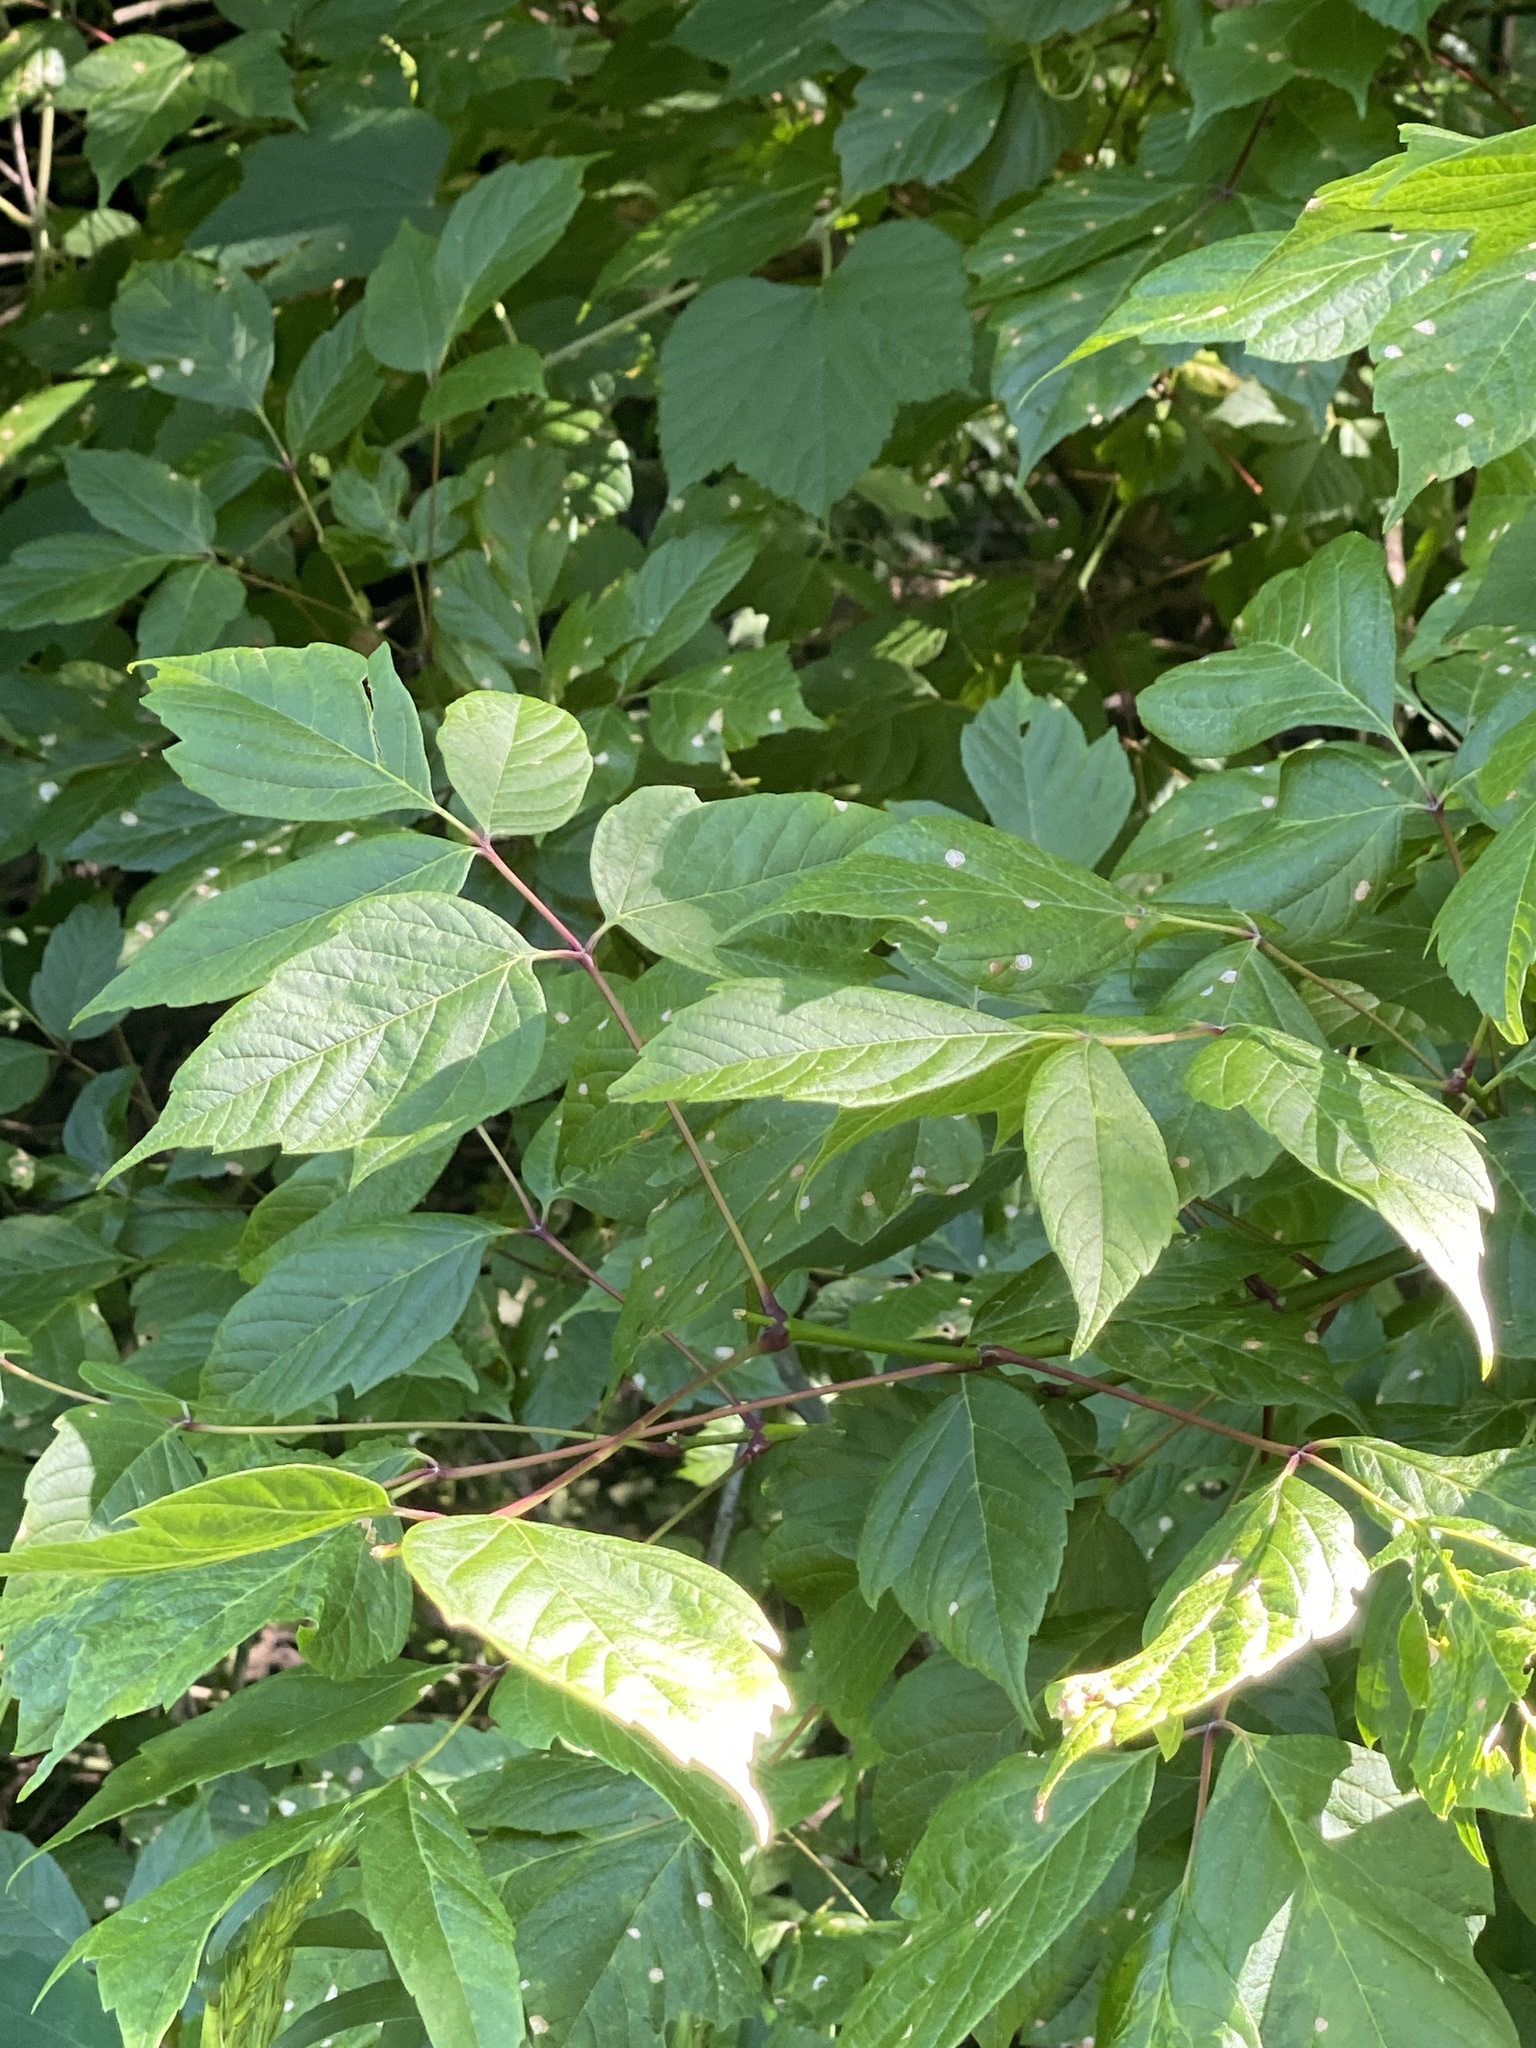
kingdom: Plantae
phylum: Tracheophyta
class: Magnoliopsida
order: Sapindales
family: Sapindaceae
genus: Acer
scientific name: Acer negundo
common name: Ashleaf maple
